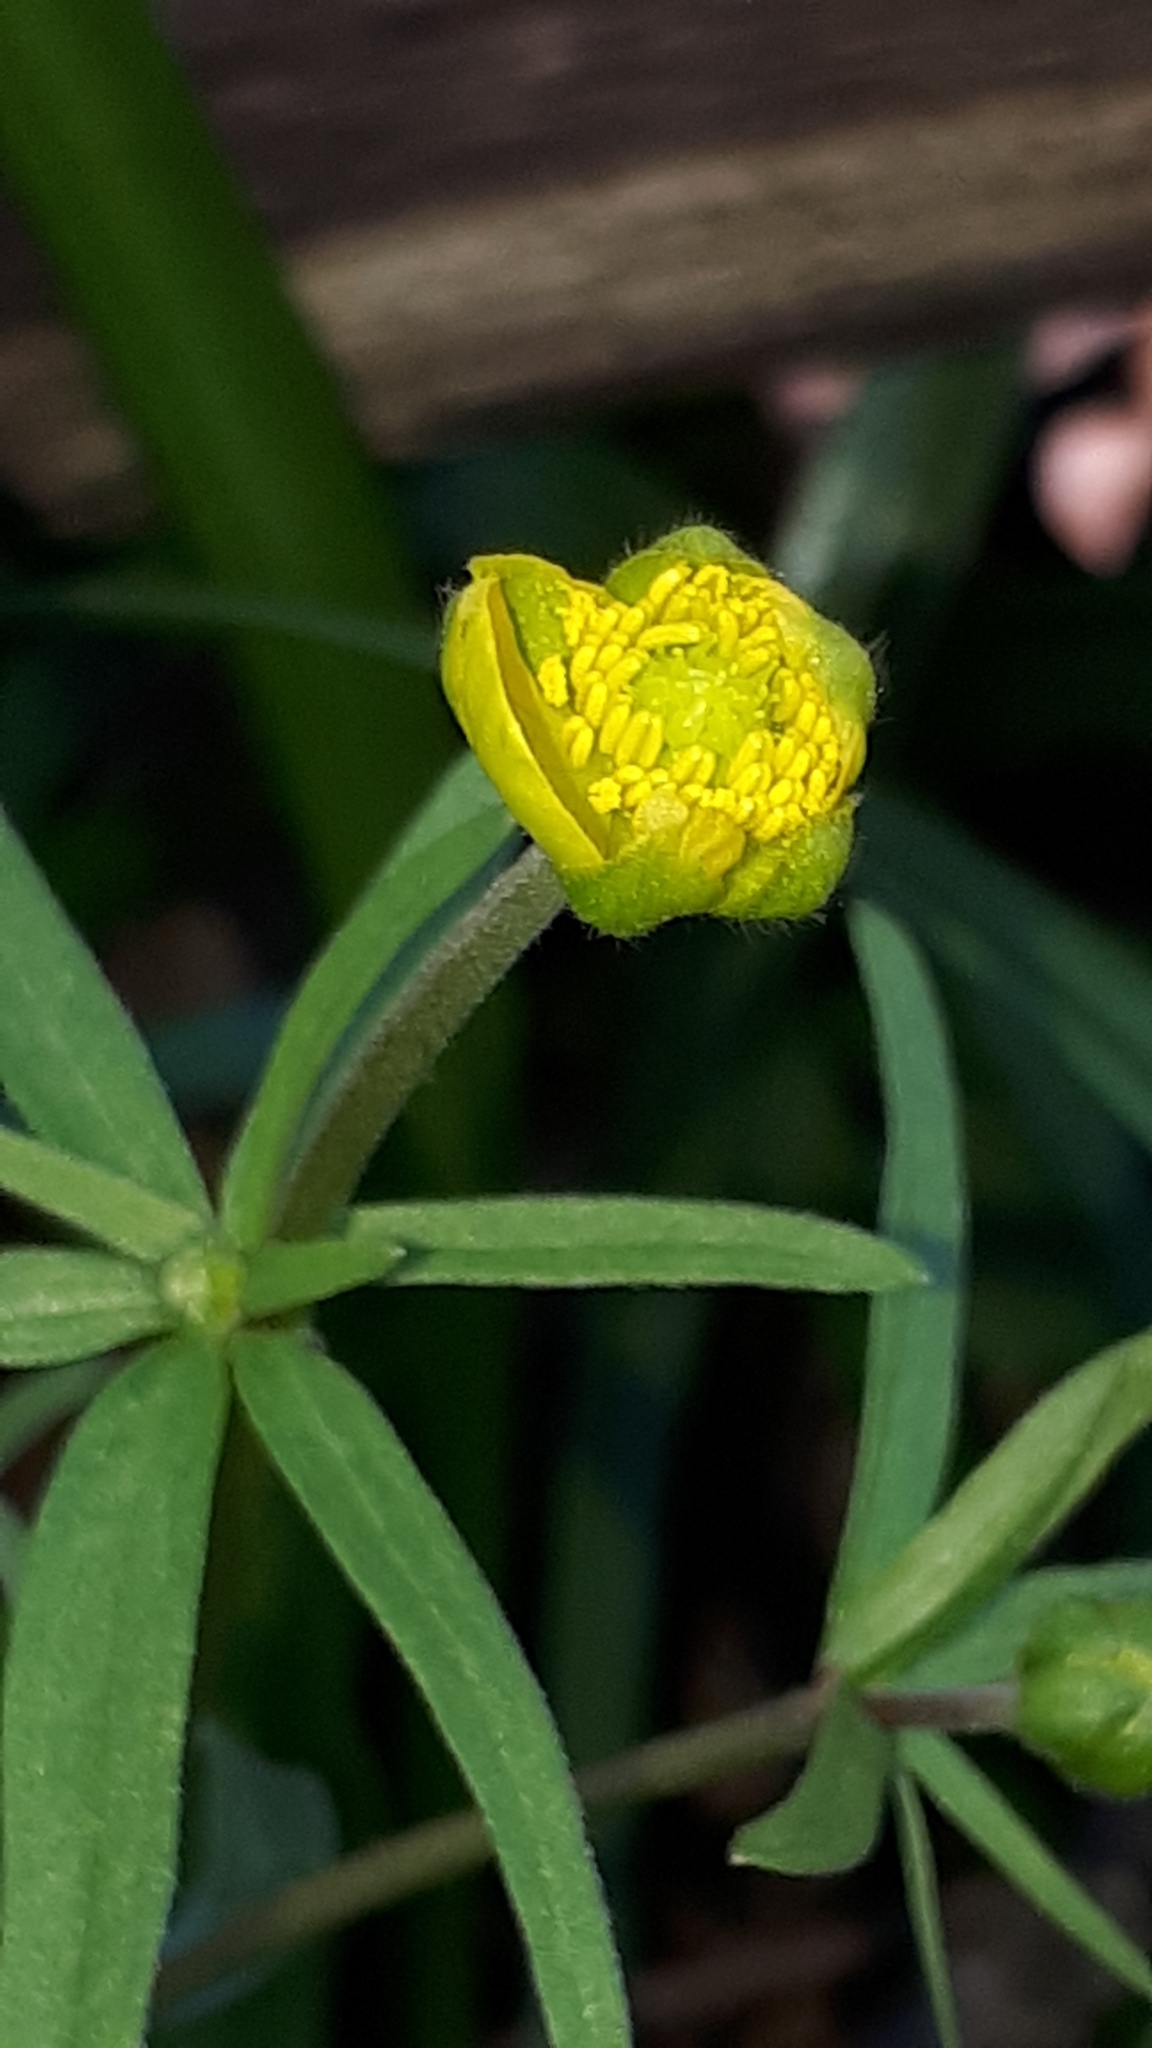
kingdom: Plantae
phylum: Tracheophyta
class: Magnoliopsida
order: Ranunculales
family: Ranunculaceae
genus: Ranunculus
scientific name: Ranunculus auricomus
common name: Goldilocks buttercup
